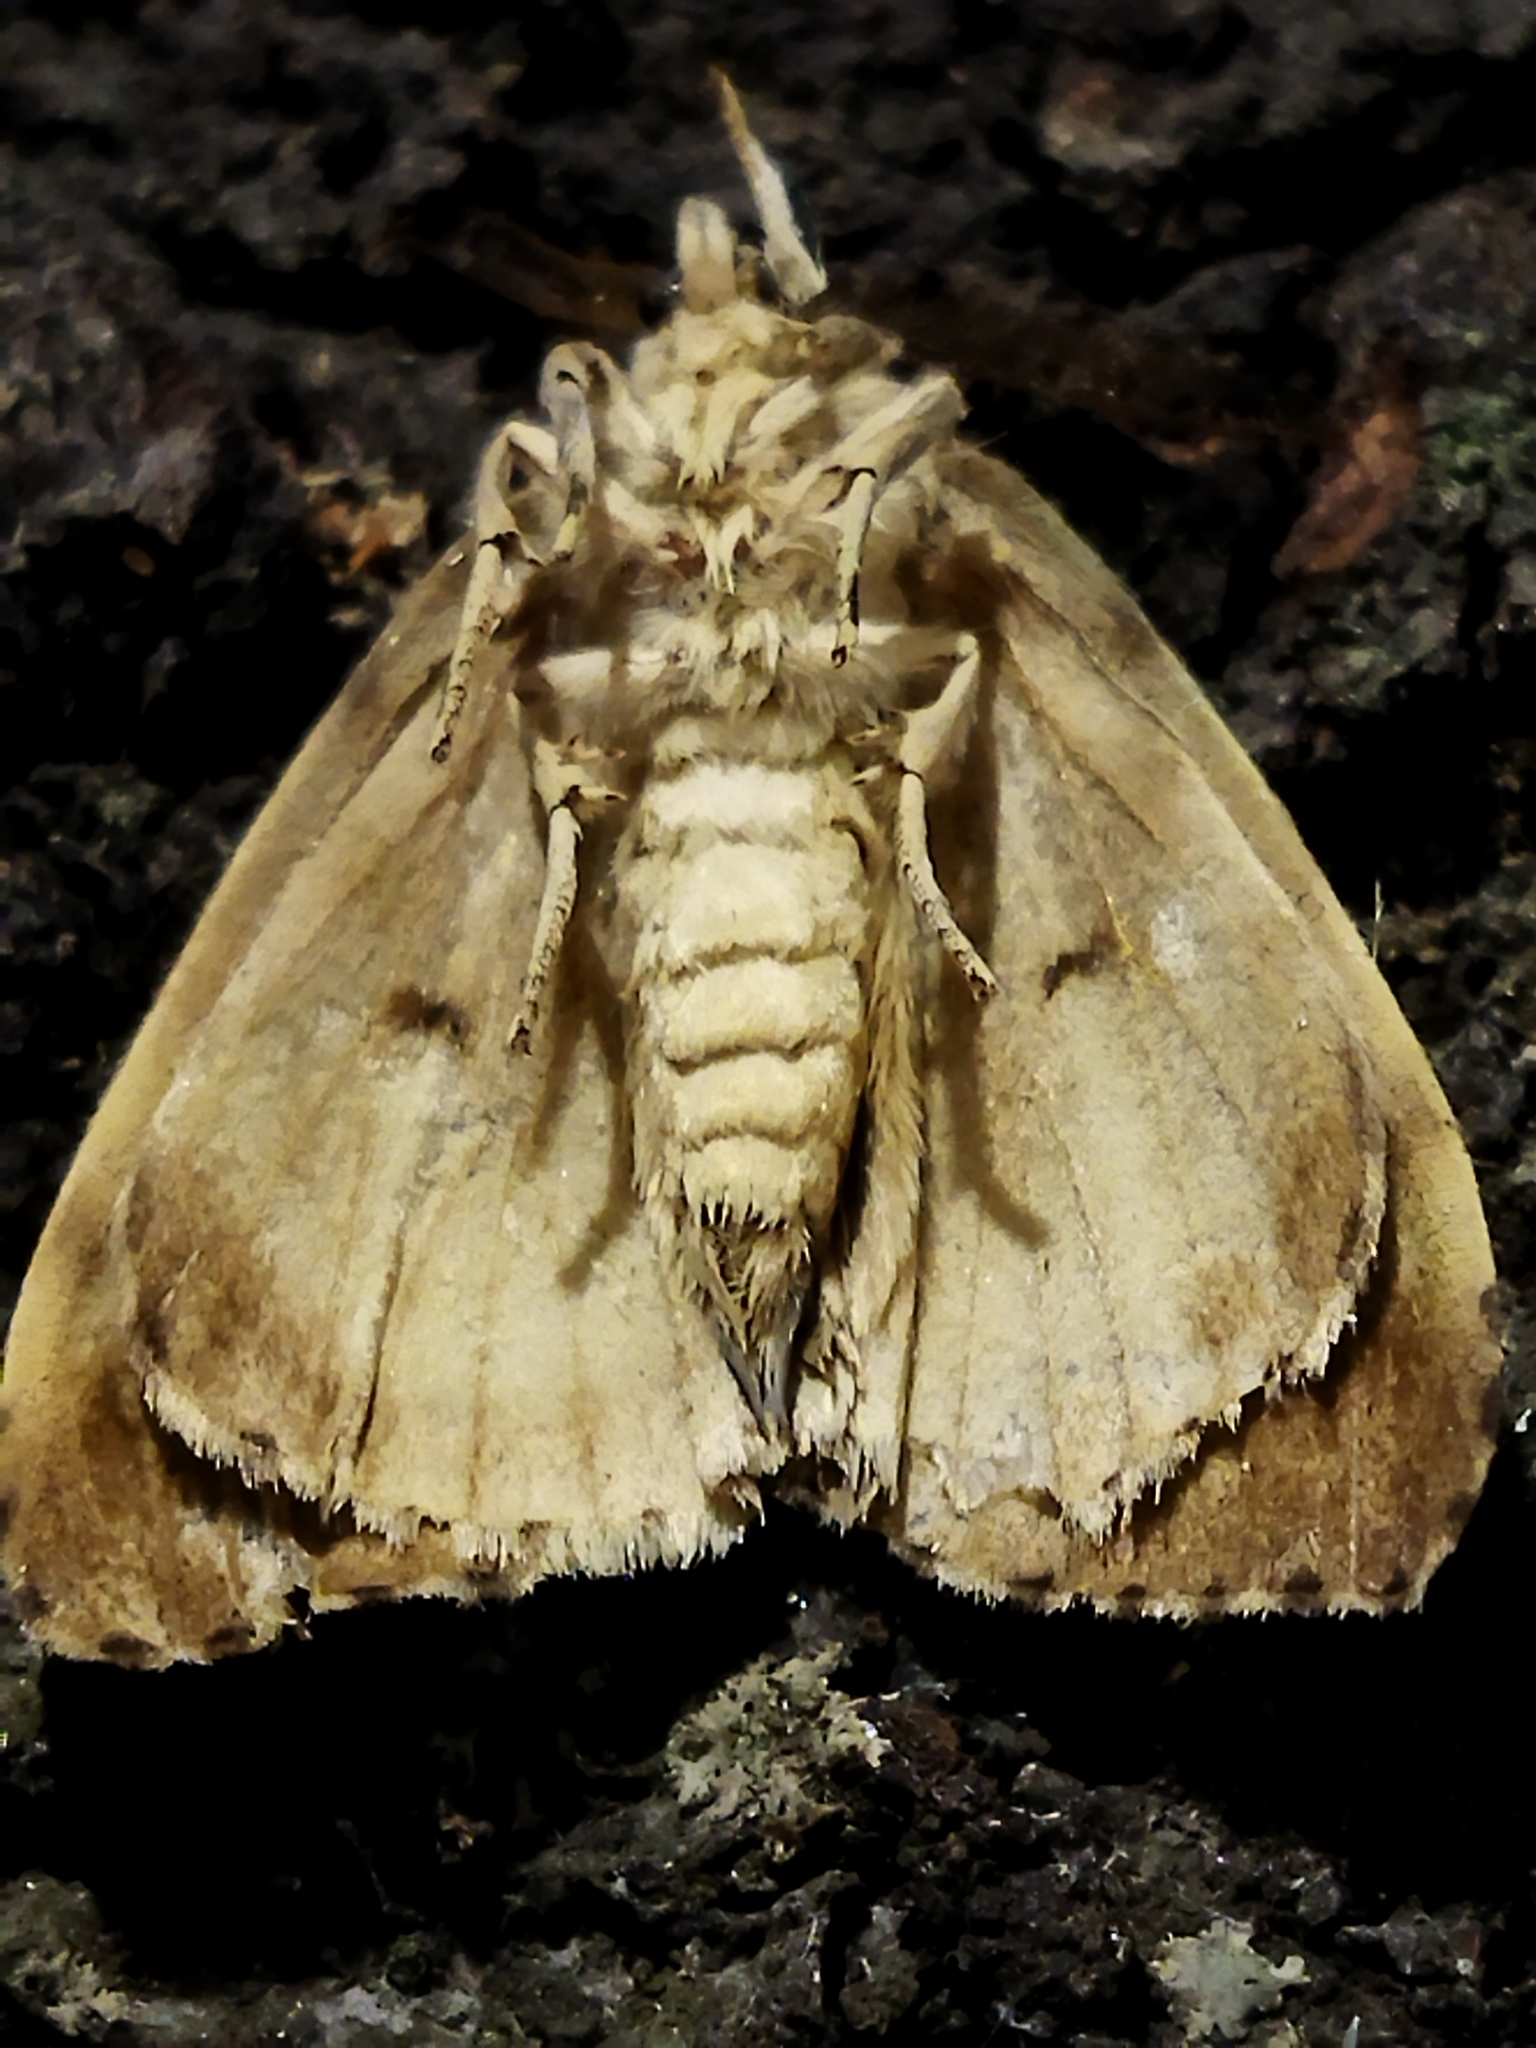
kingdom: Animalia
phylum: Arthropoda
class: Insecta
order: Lepidoptera
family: Erebidae
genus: Lymantria
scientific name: Lymantria dispar
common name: Gypsy moth
